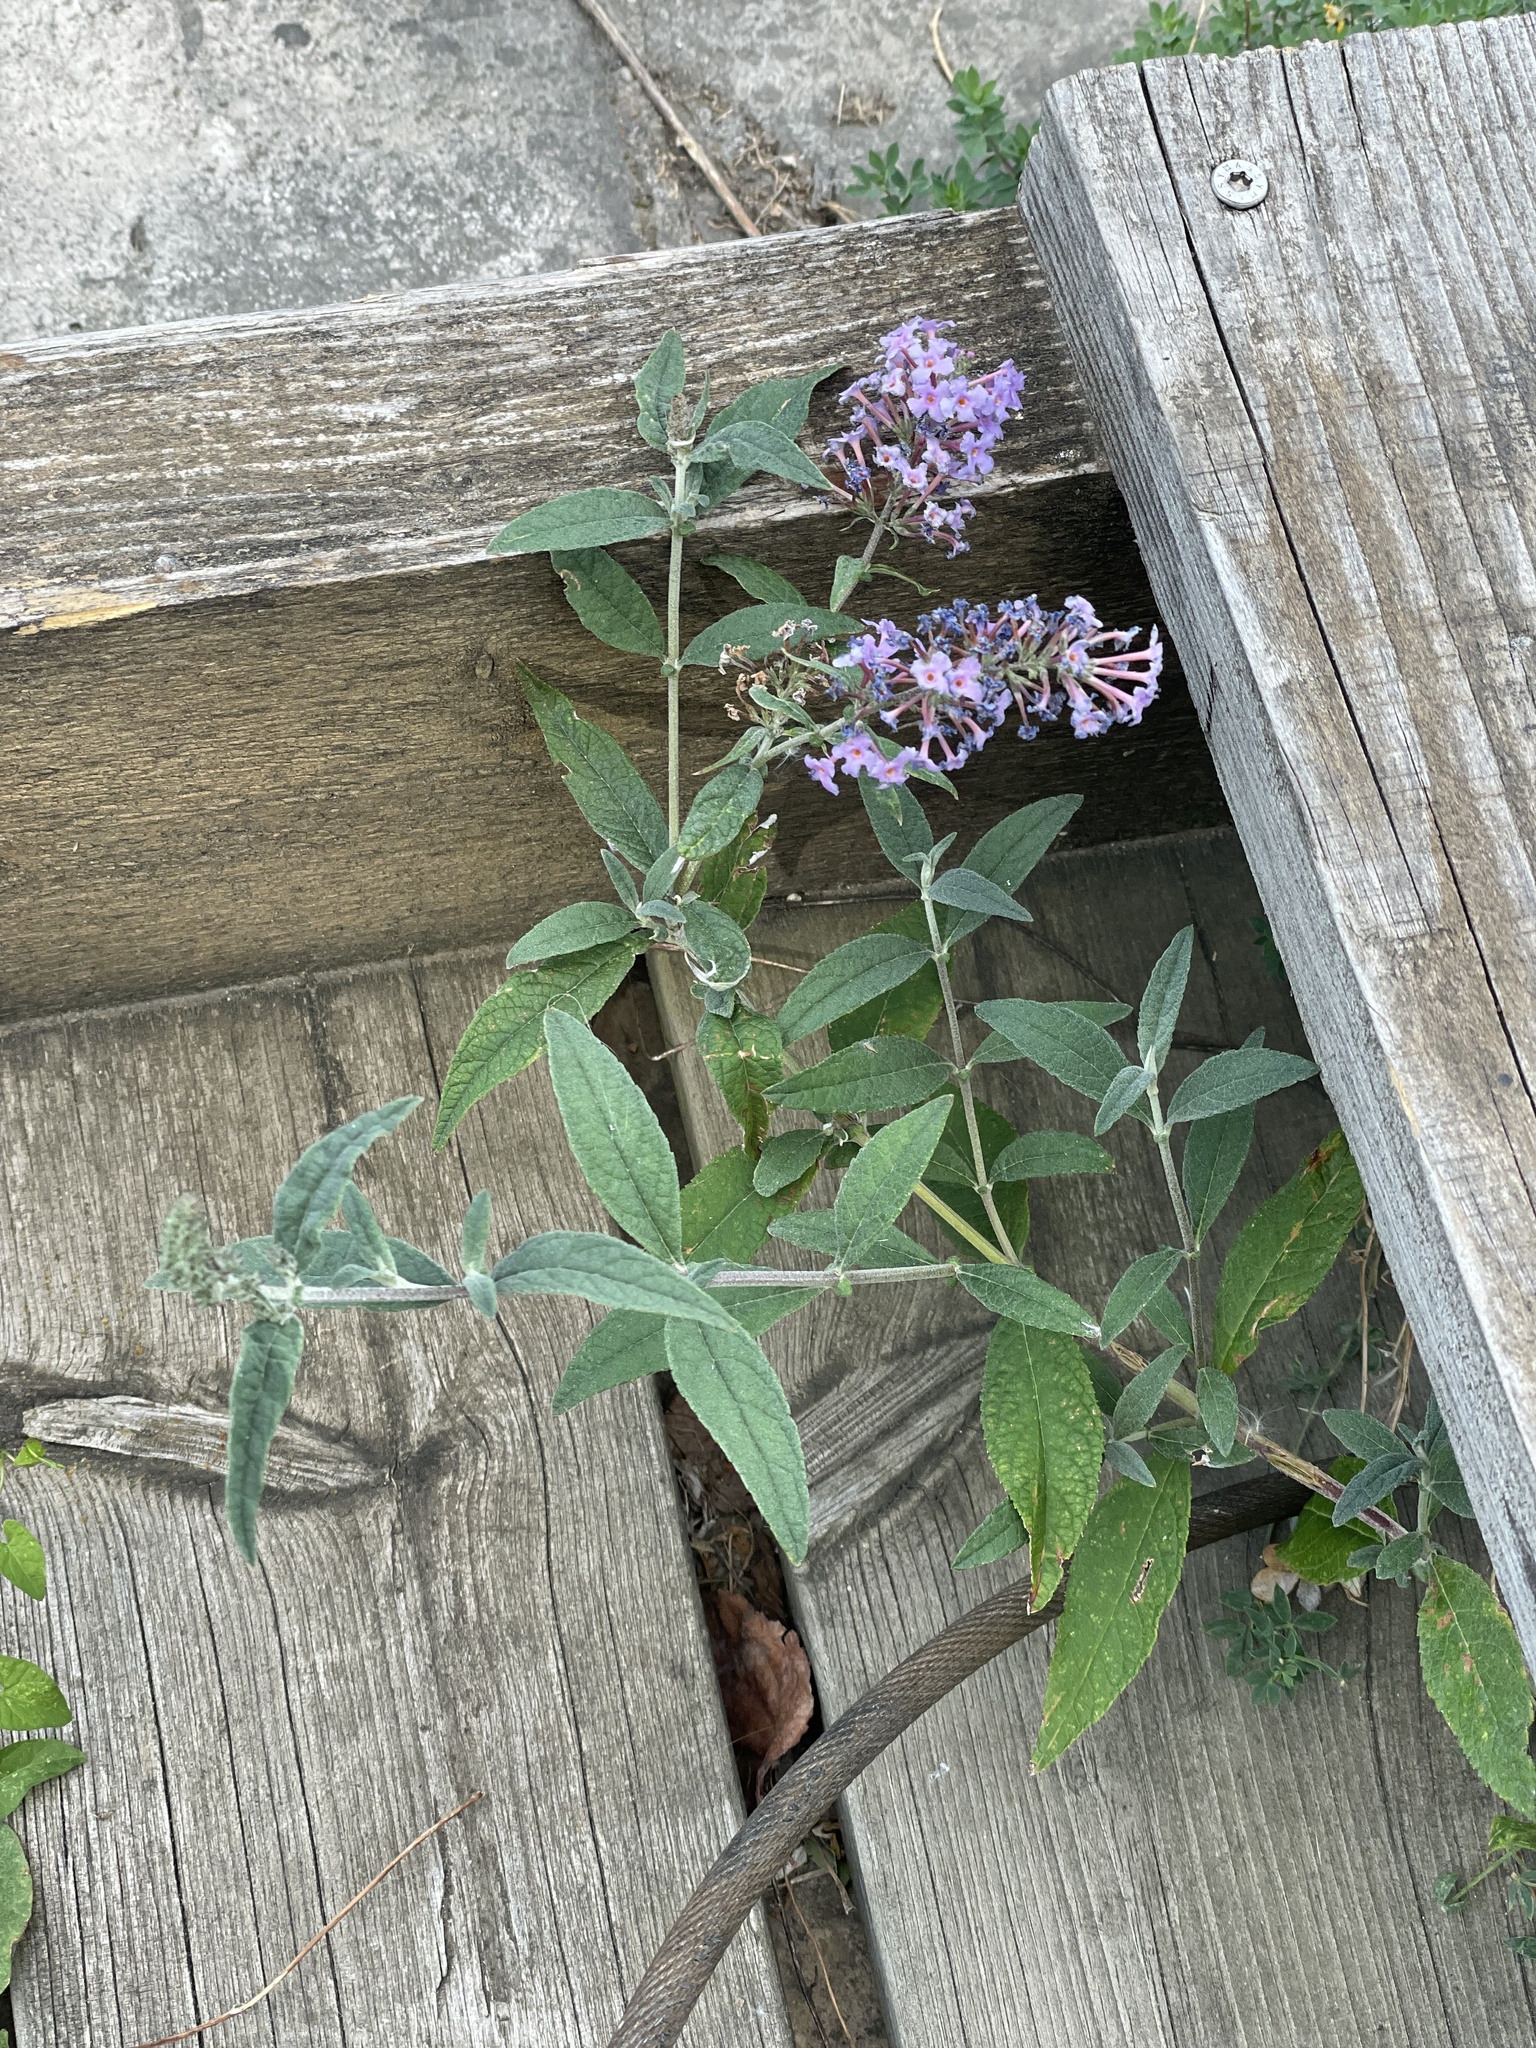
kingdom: Plantae
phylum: Tracheophyta
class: Magnoliopsida
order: Lamiales
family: Scrophulariaceae
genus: Buddleja
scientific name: Buddleja davidii
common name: Butterfly-bush
